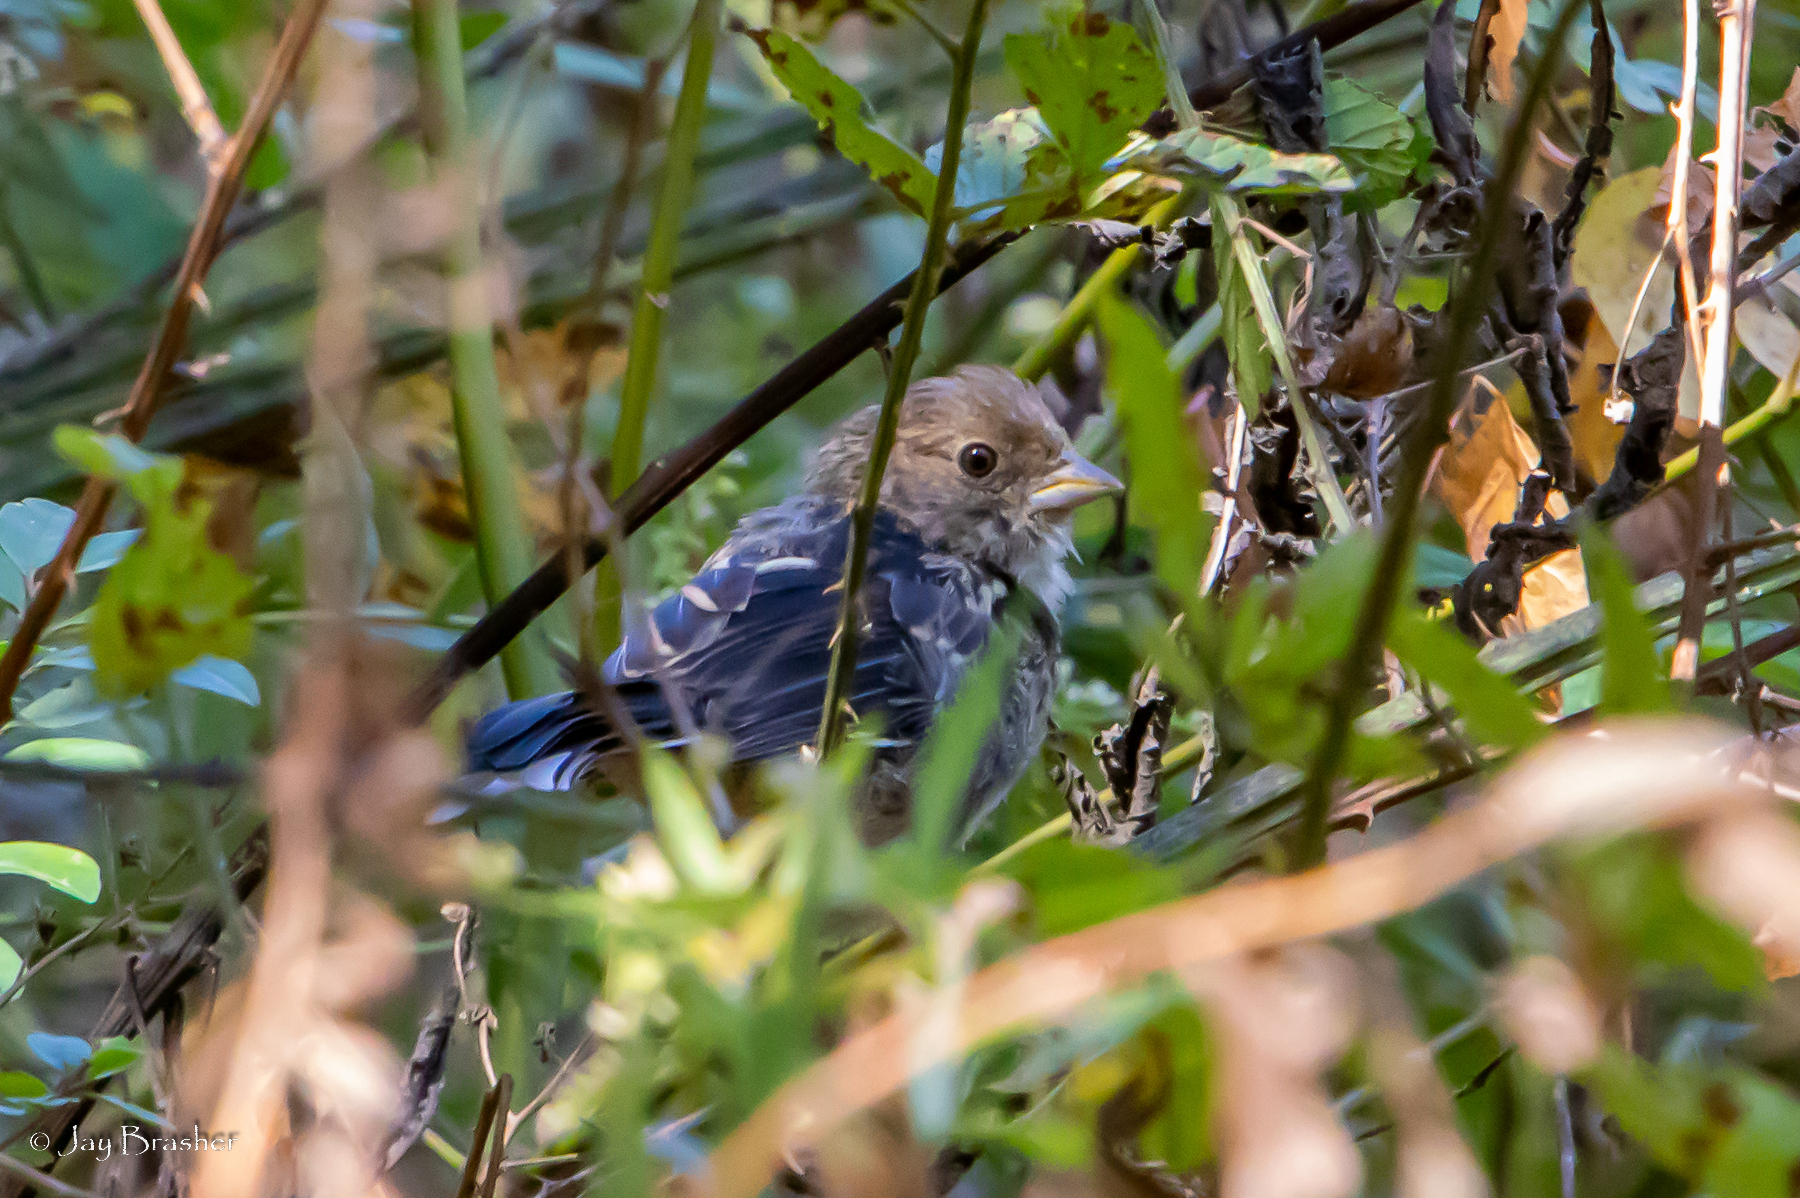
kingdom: Animalia
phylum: Chordata
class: Aves
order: Passeriformes
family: Passerellidae
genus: Pipilo
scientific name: Pipilo erythrophthalmus
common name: Eastern towhee
